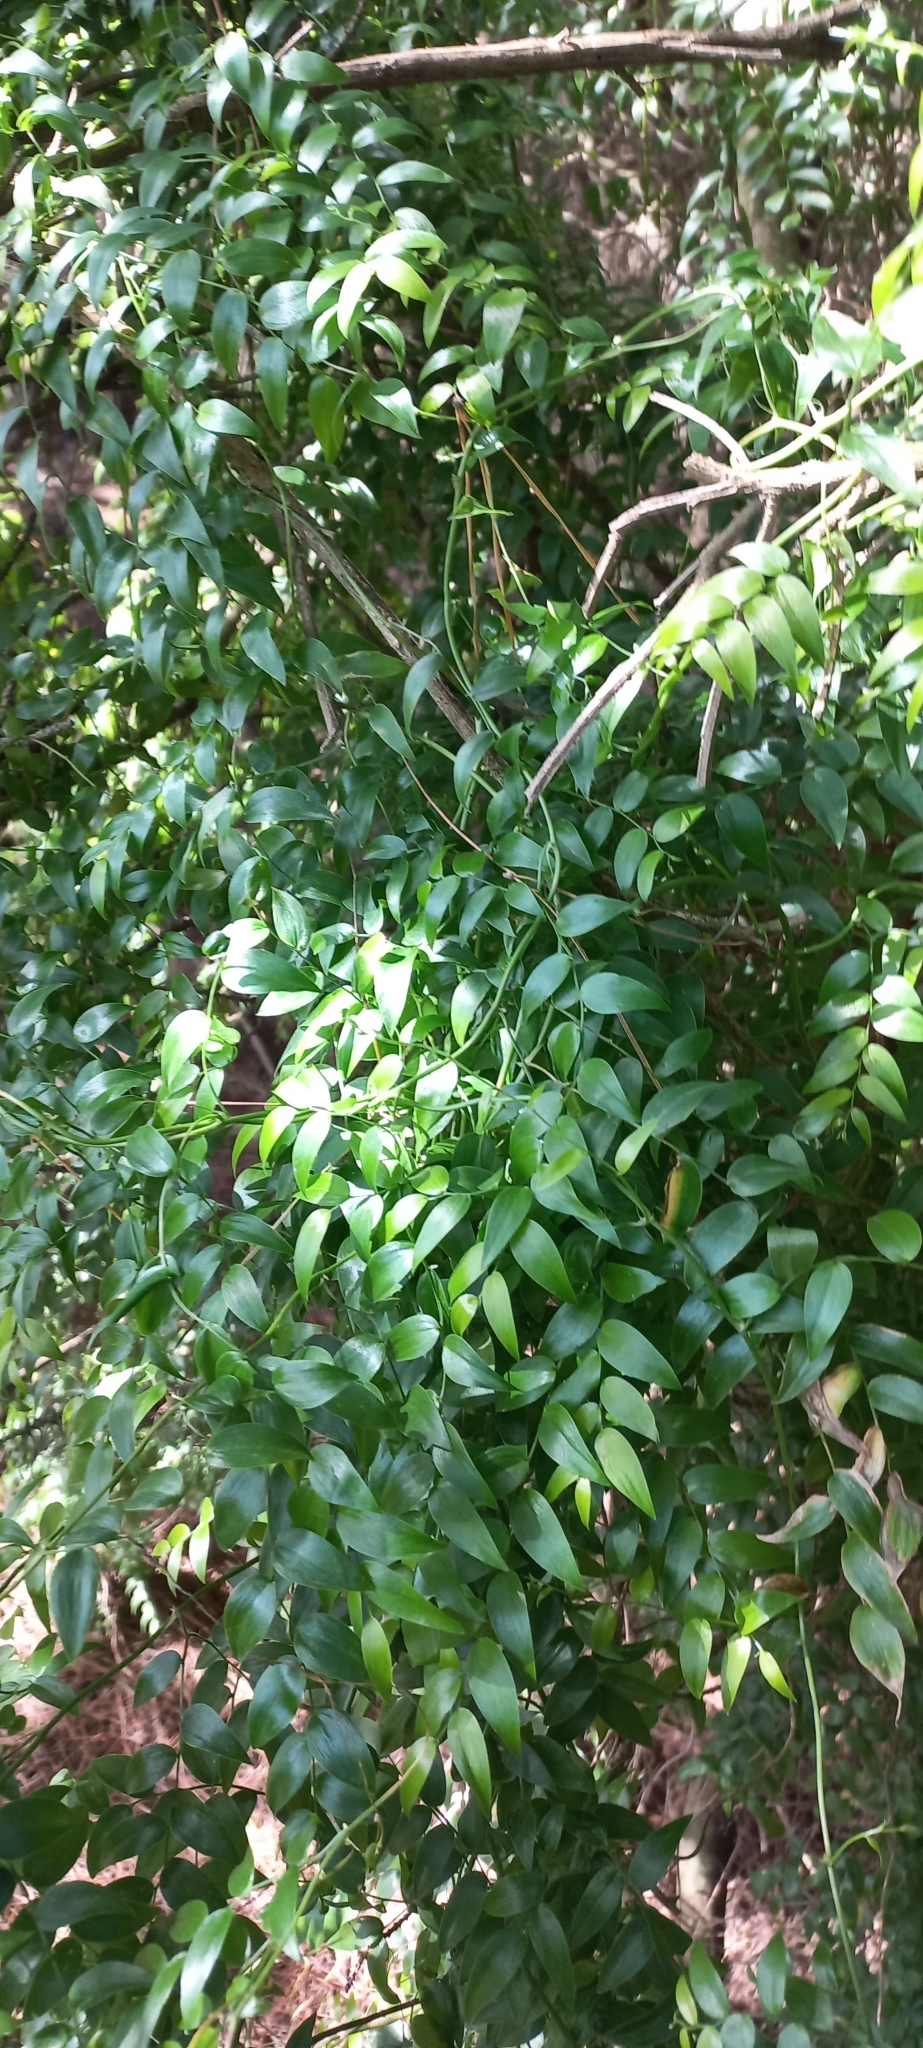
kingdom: Plantae
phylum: Tracheophyta
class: Liliopsida
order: Asparagales
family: Asparagaceae
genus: Asparagus
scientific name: Asparagus asparagoides
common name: African asparagus fern
